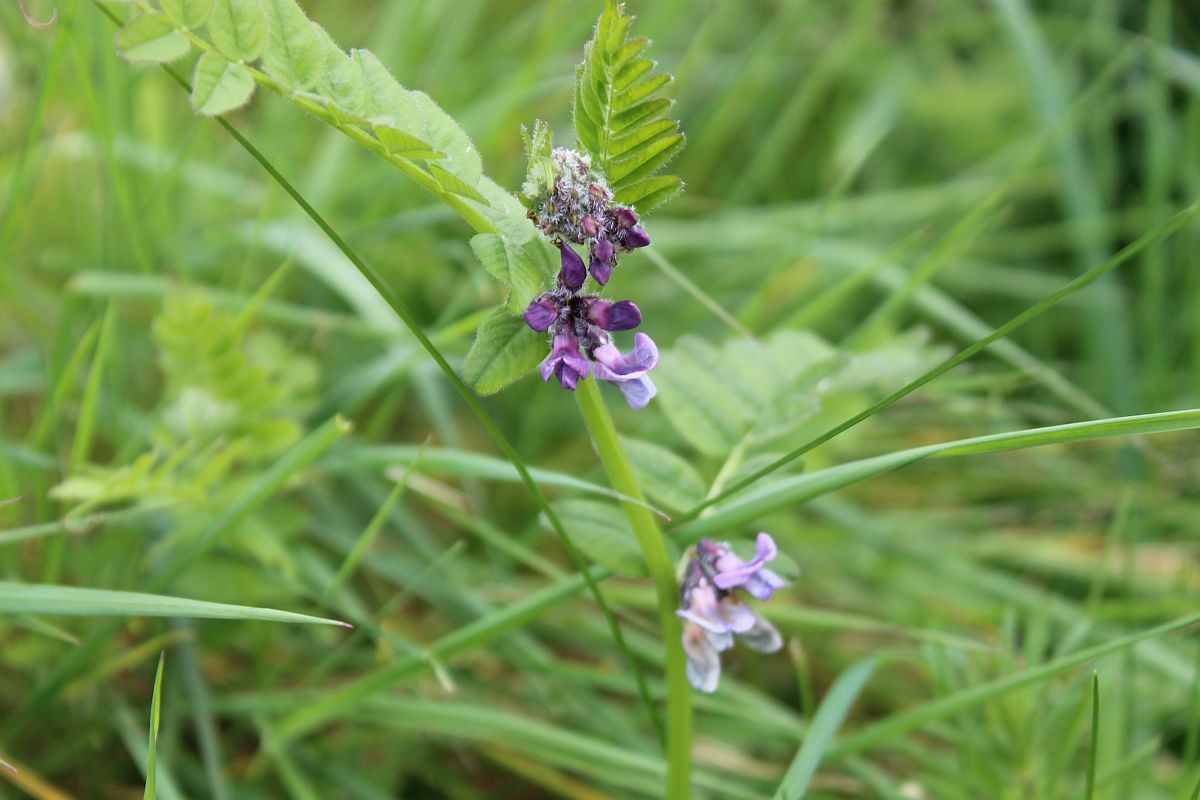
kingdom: Plantae
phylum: Tracheophyta
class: Magnoliopsida
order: Fabales
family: Fabaceae
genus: Vicia
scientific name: Vicia sepium
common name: Bush vetch
